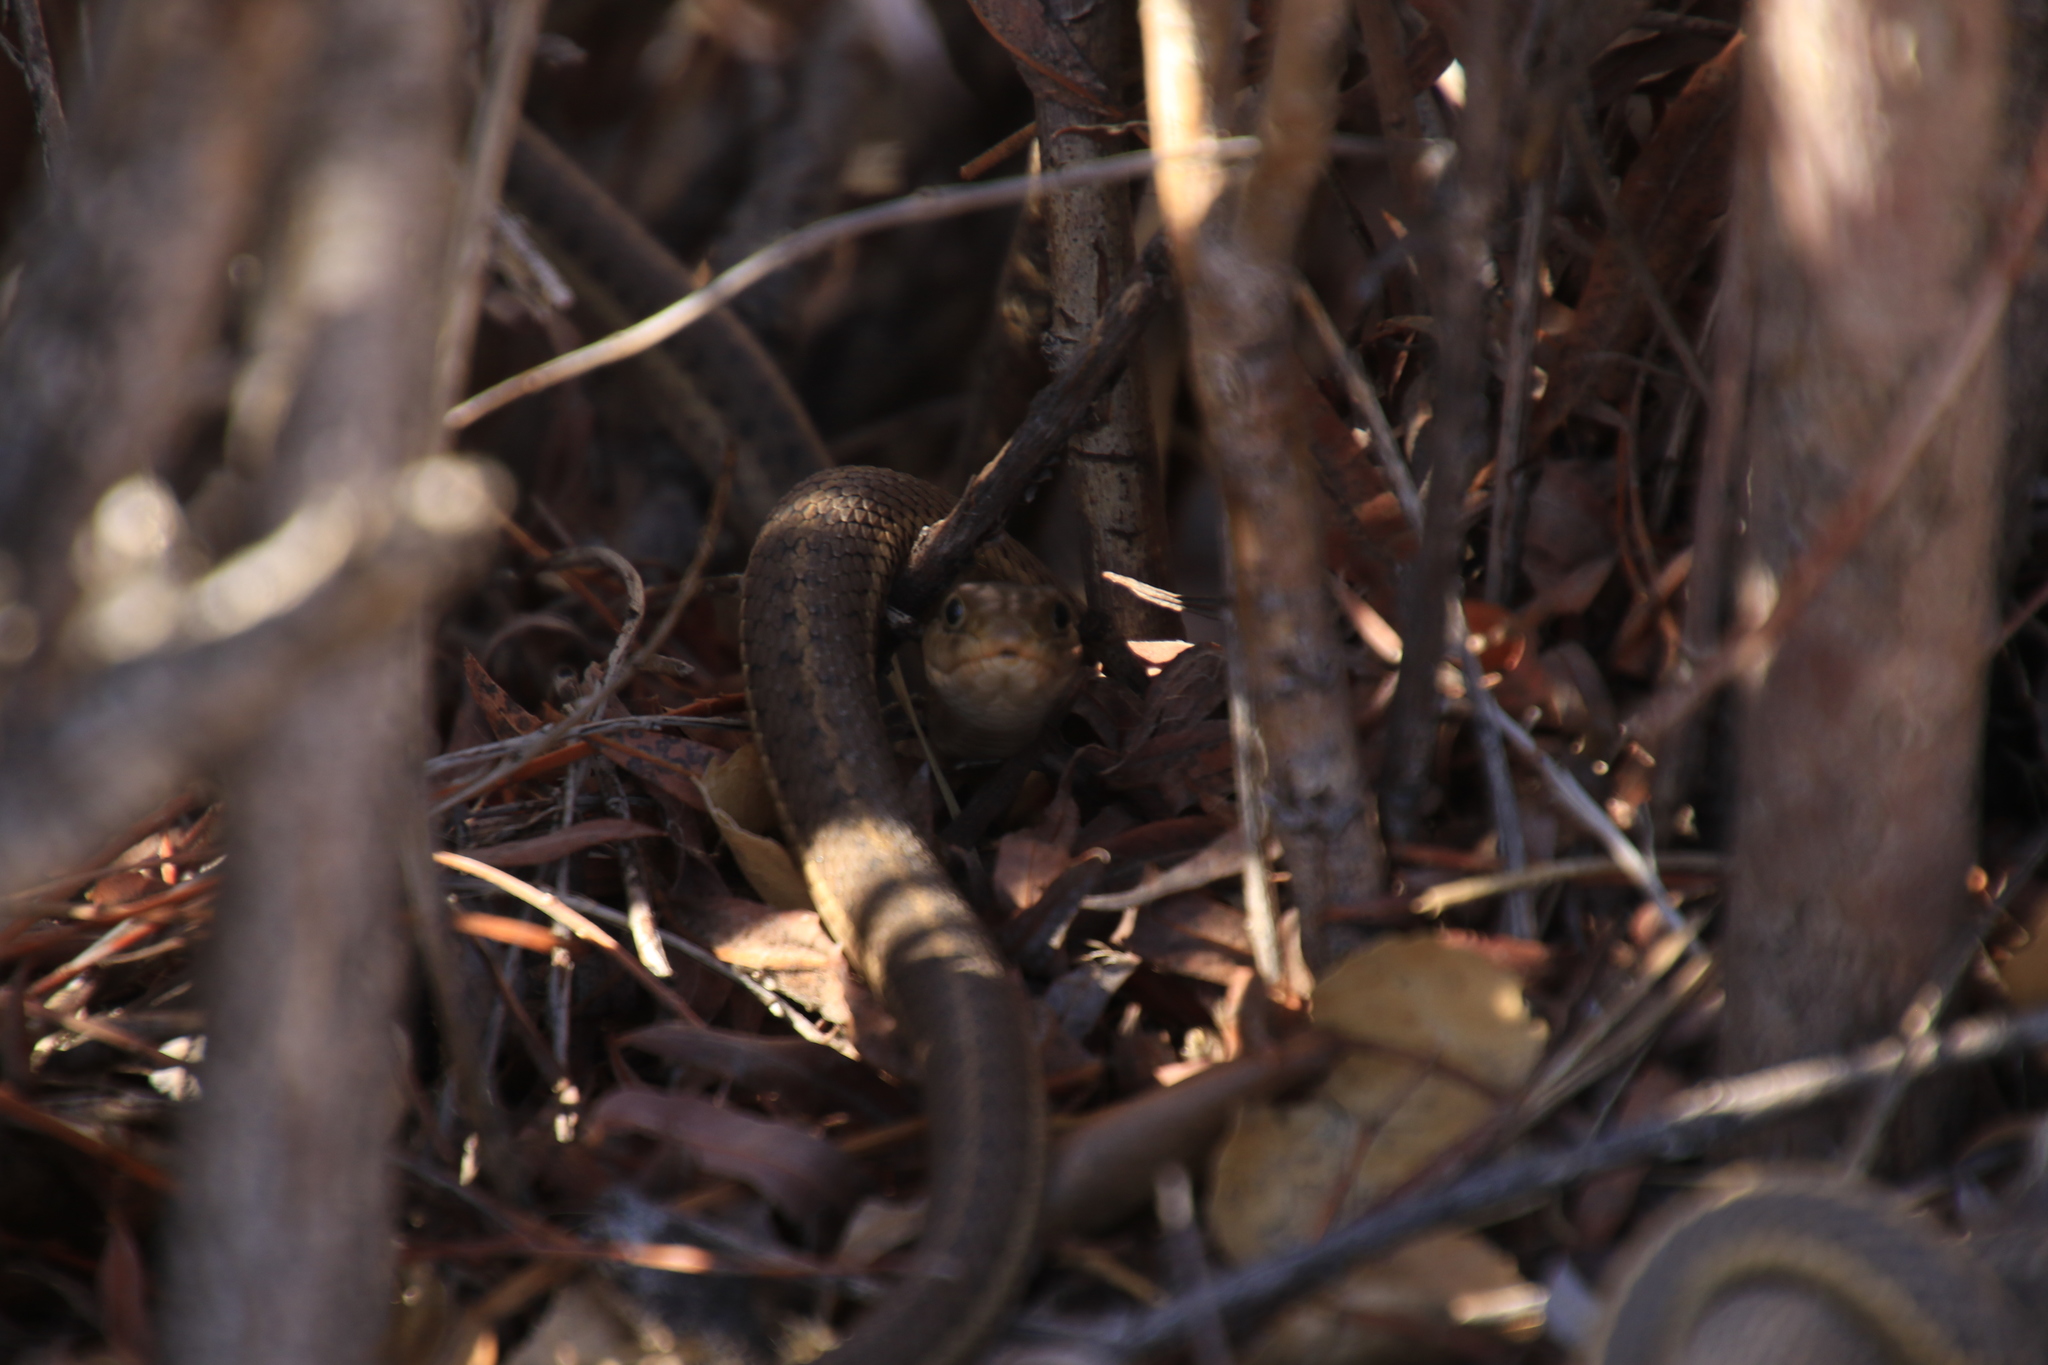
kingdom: Animalia
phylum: Chordata
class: Squamata
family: Colubridae
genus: Thamnophis
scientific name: Thamnophis elegans
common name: Western terrestrial garter snake
